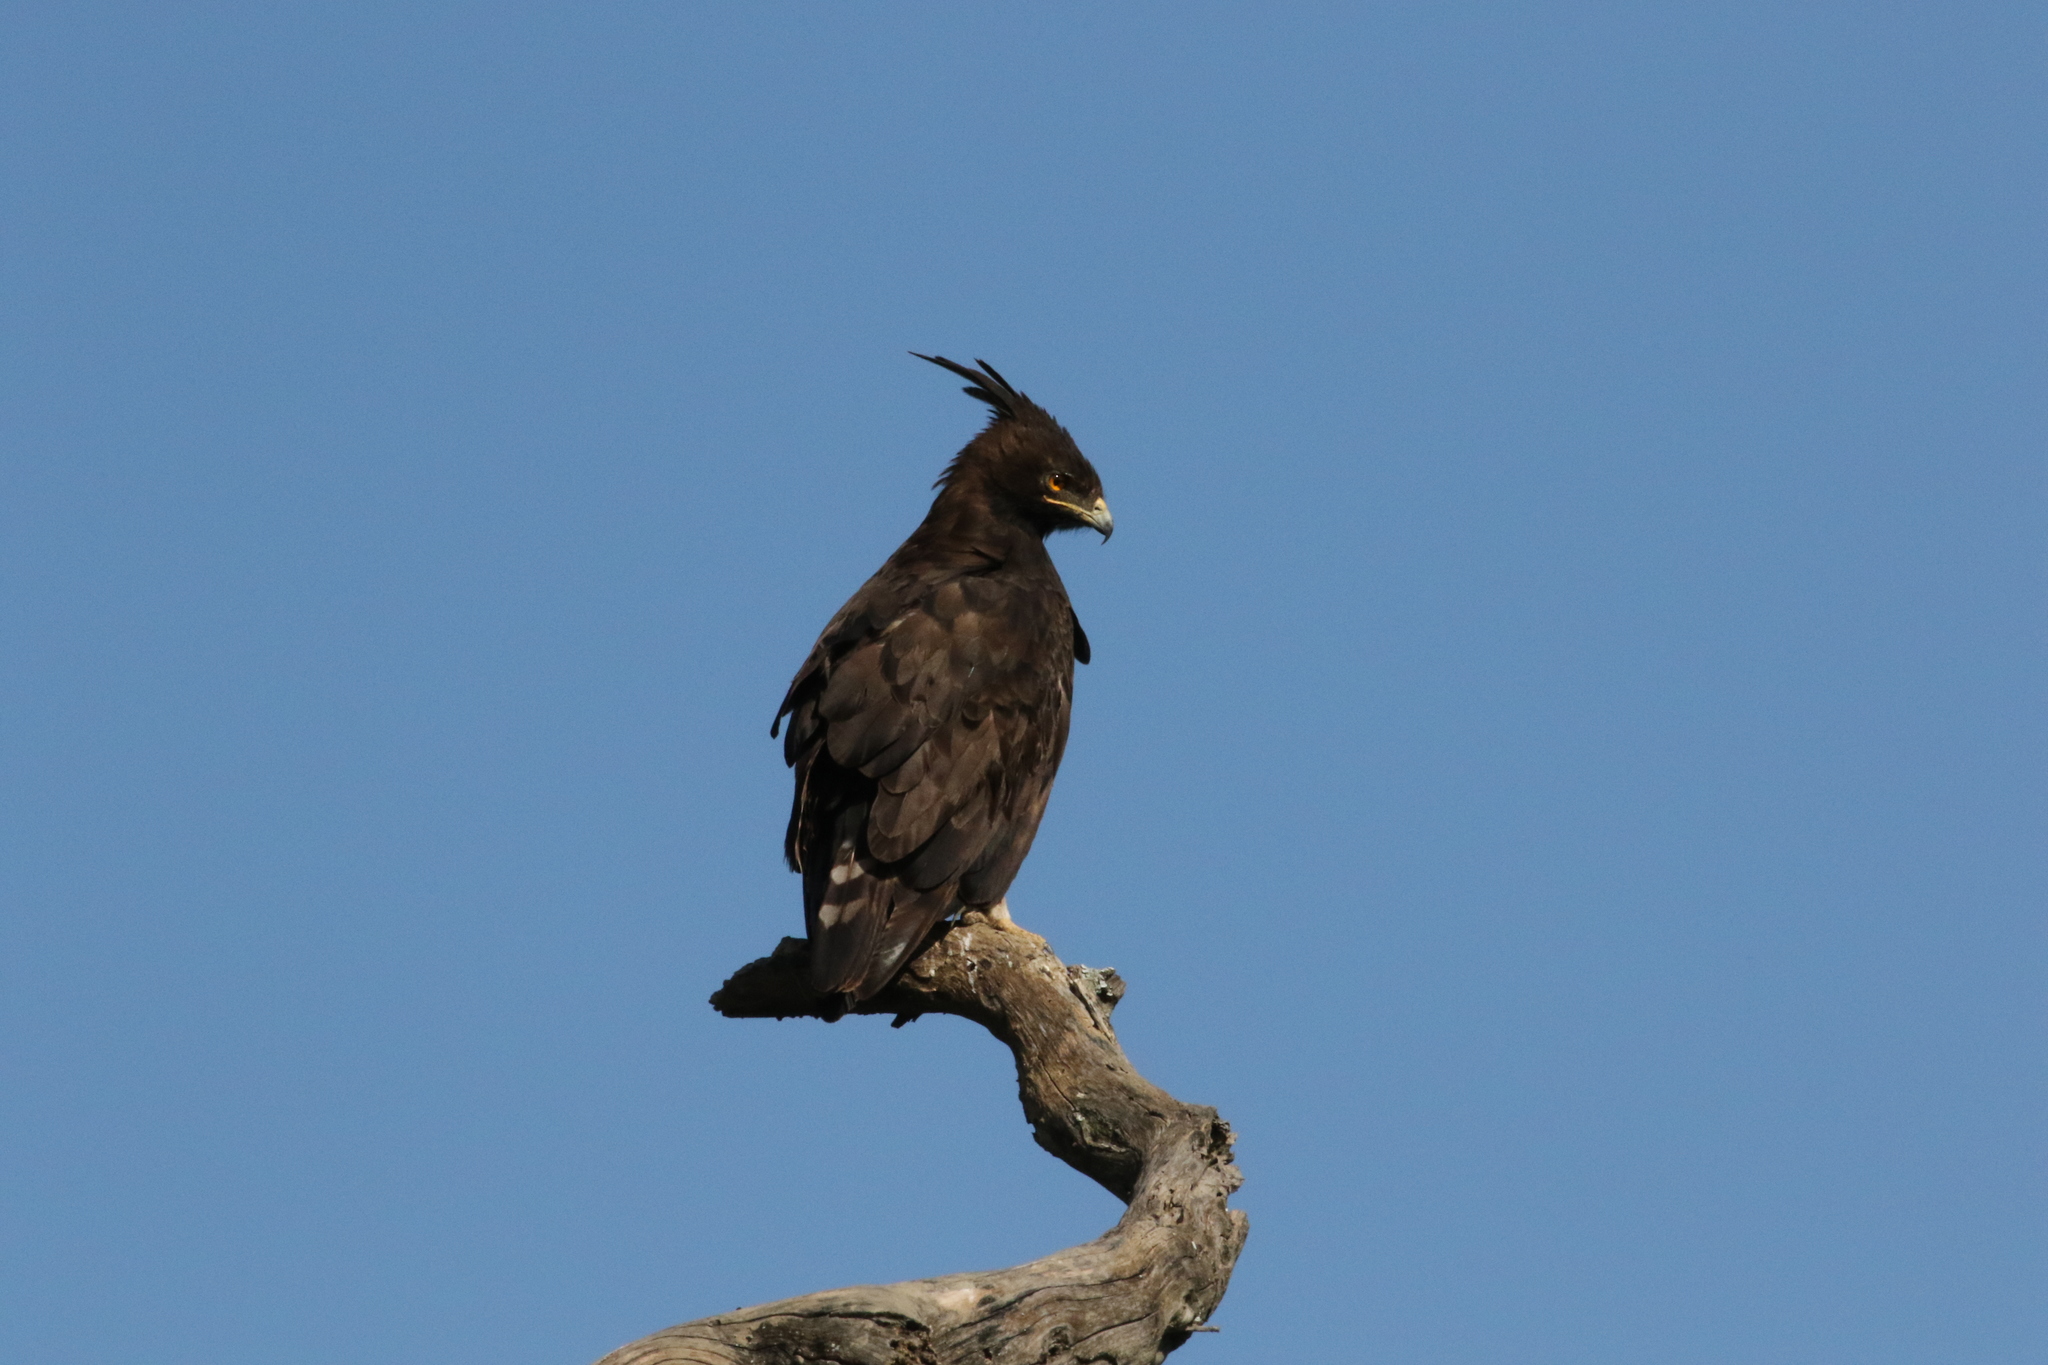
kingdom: Animalia
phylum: Chordata
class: Aves
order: Accipitriformes
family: Accipitridae
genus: Lophaetus
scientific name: Lophaetus occipitalis
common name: Long-crested eagle
